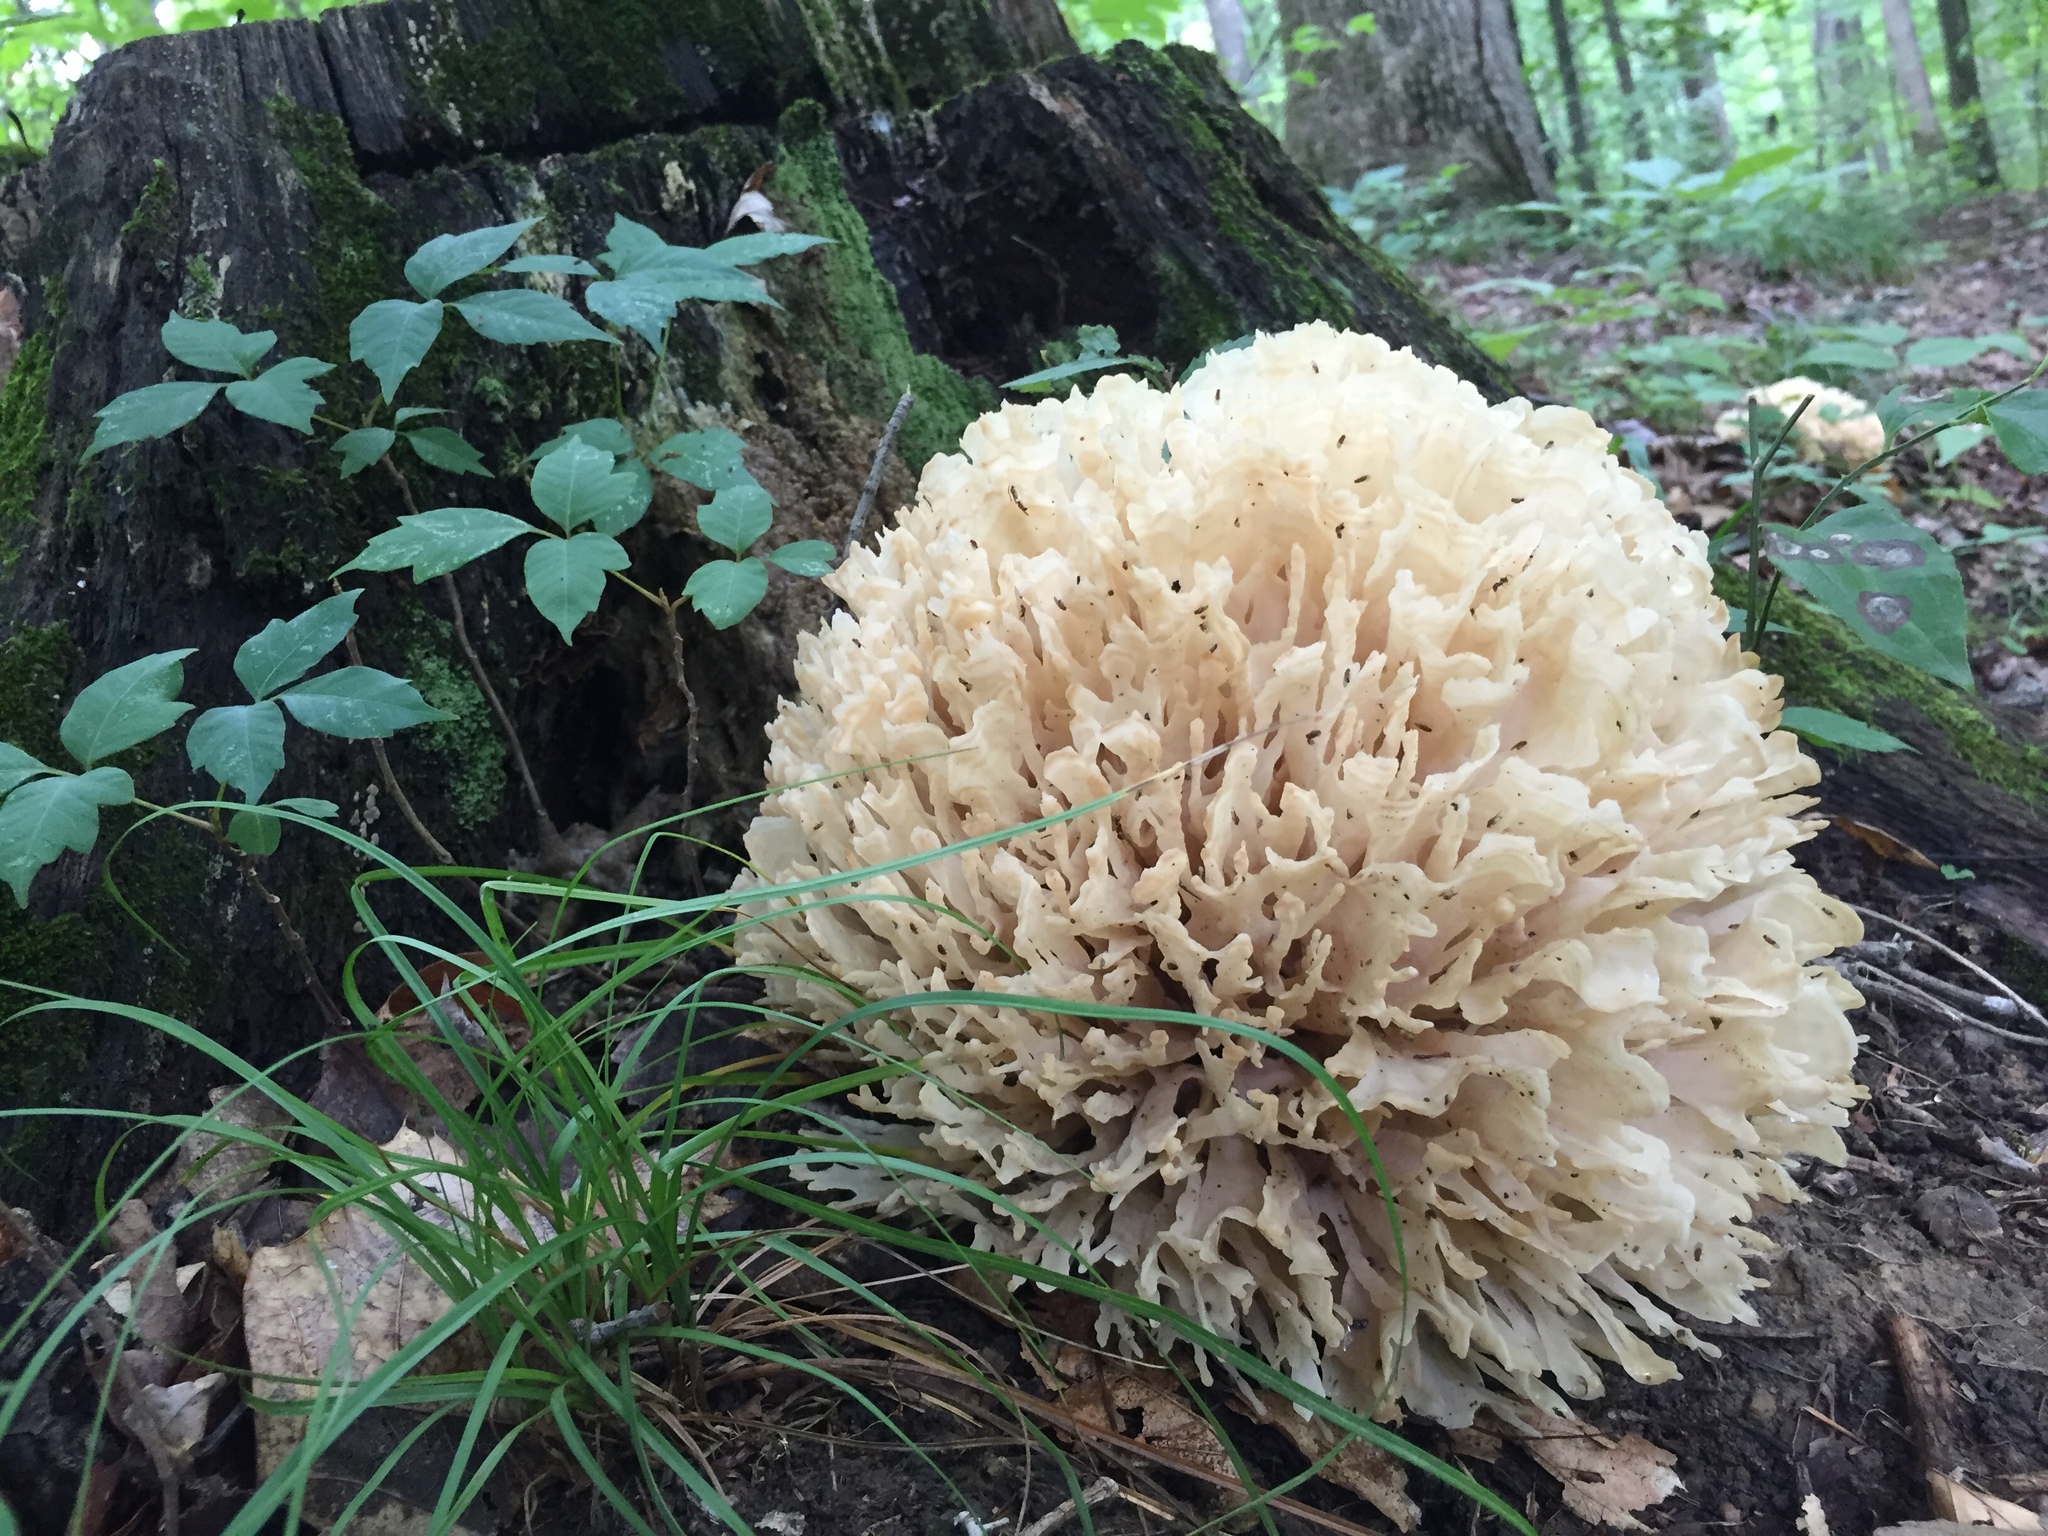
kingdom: Fungi
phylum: Basidiomycota
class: Agaricomycetes
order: Polyporales
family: Sparassidaceae
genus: Sparassis
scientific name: Sparassis spathulata
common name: Eastern cauliflower mushroom
